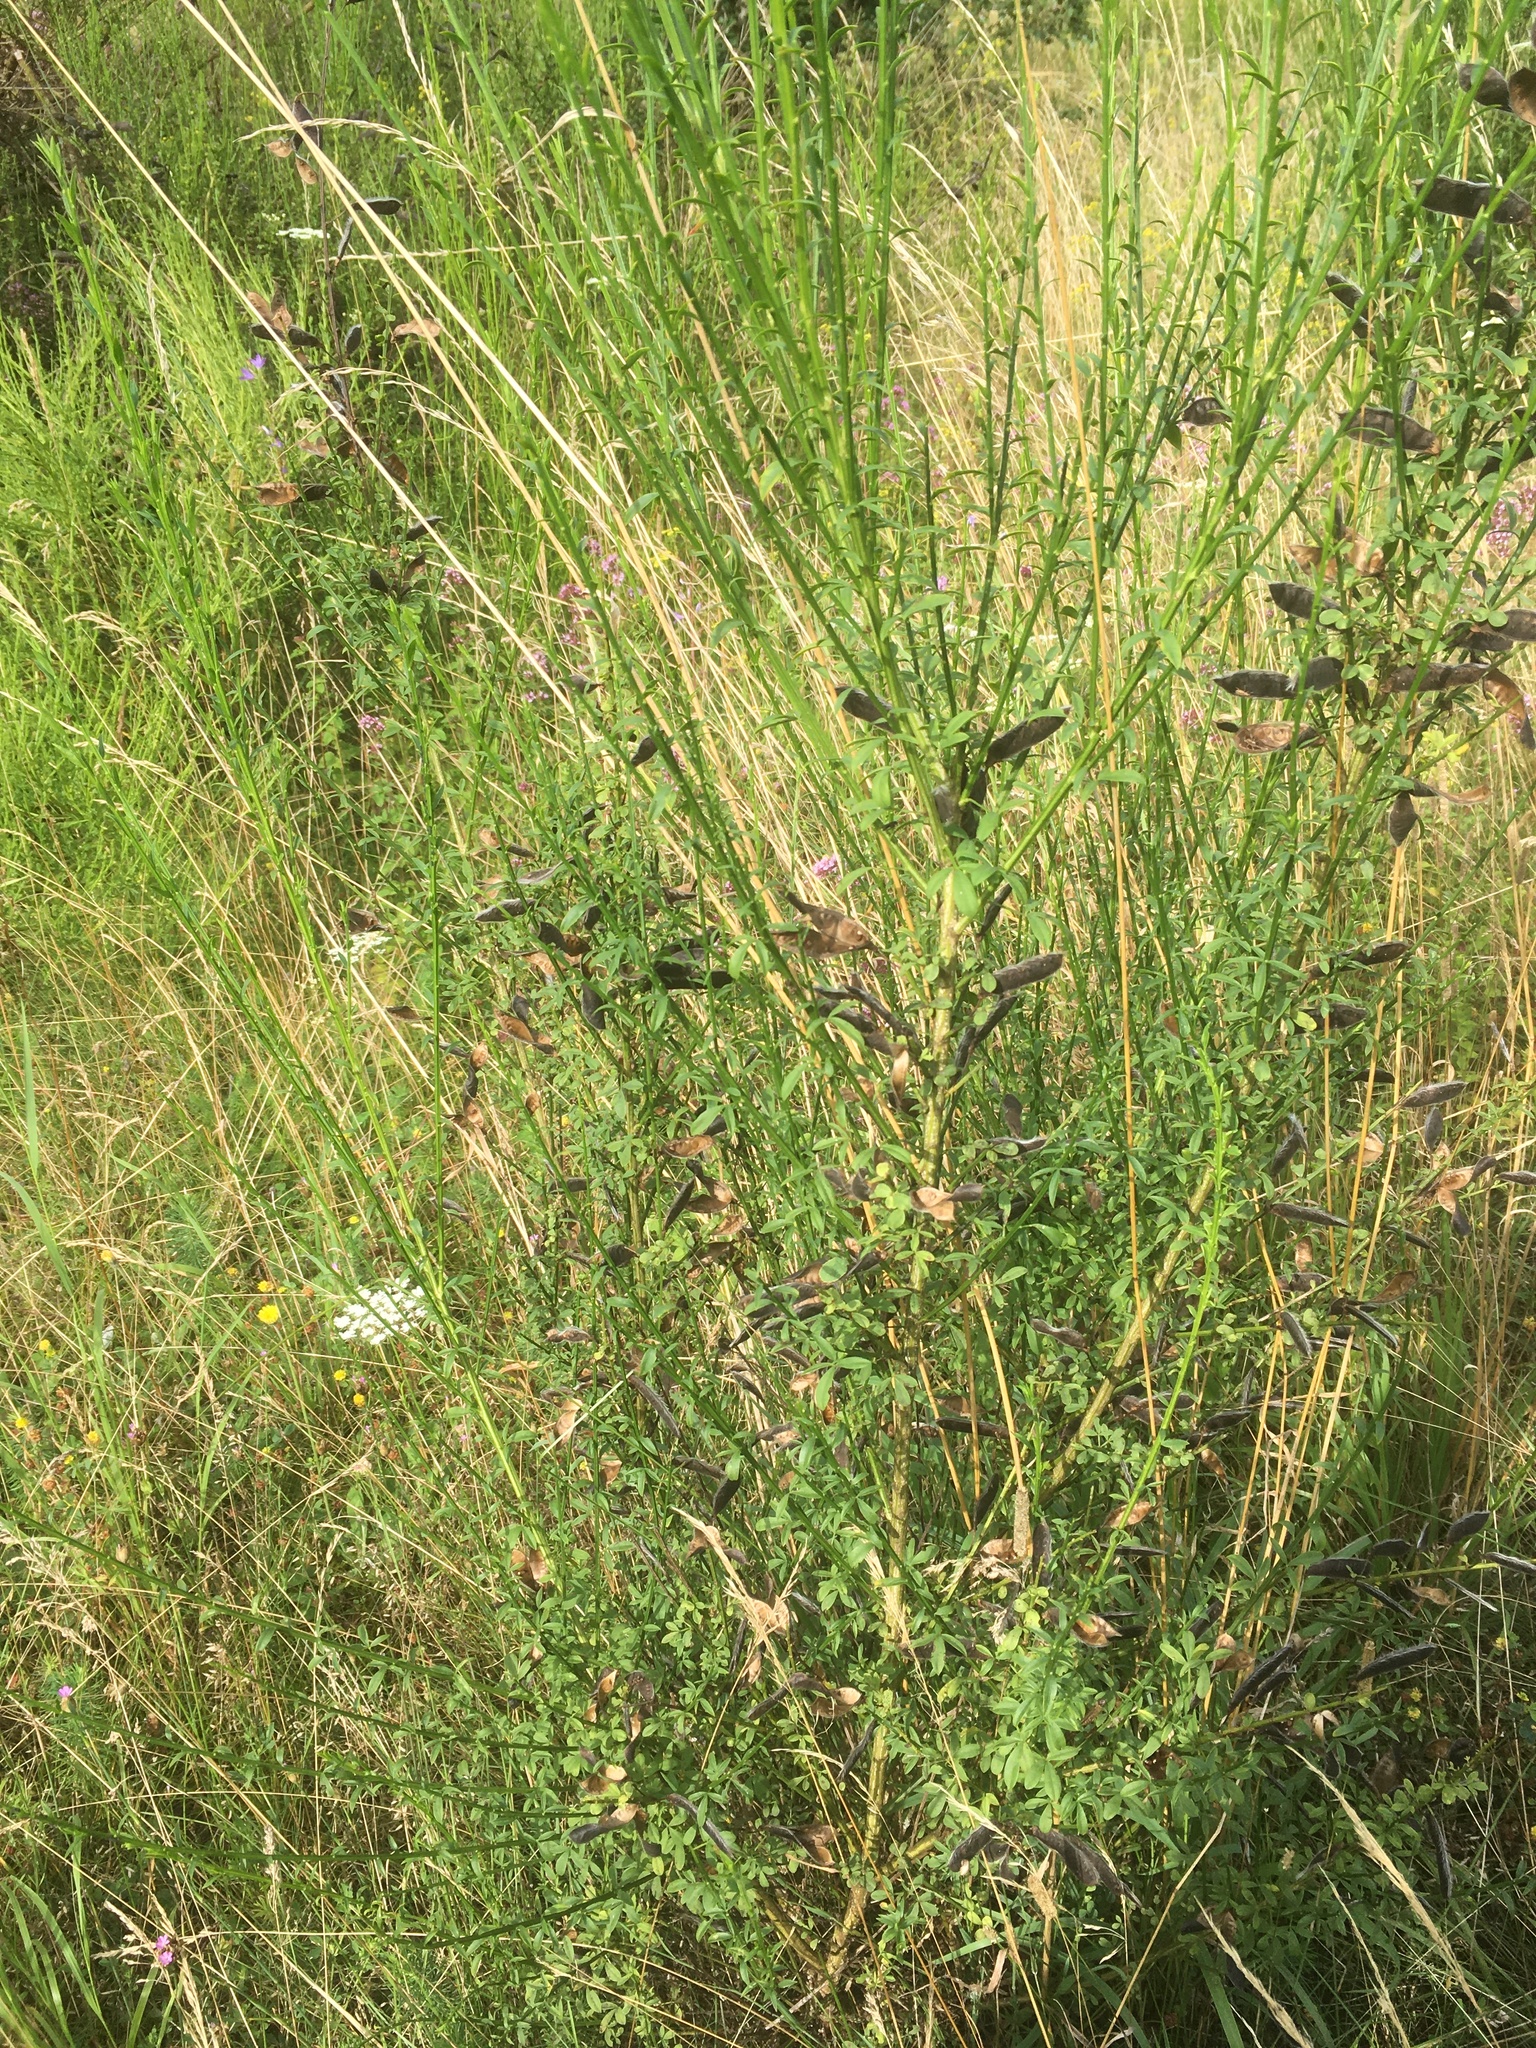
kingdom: Plantae
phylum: Tracheophyta
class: Magnoliopsida
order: Fabales
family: Fabaceae
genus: Cytisus
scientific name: Cytisus scoparius
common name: Scotch broom
